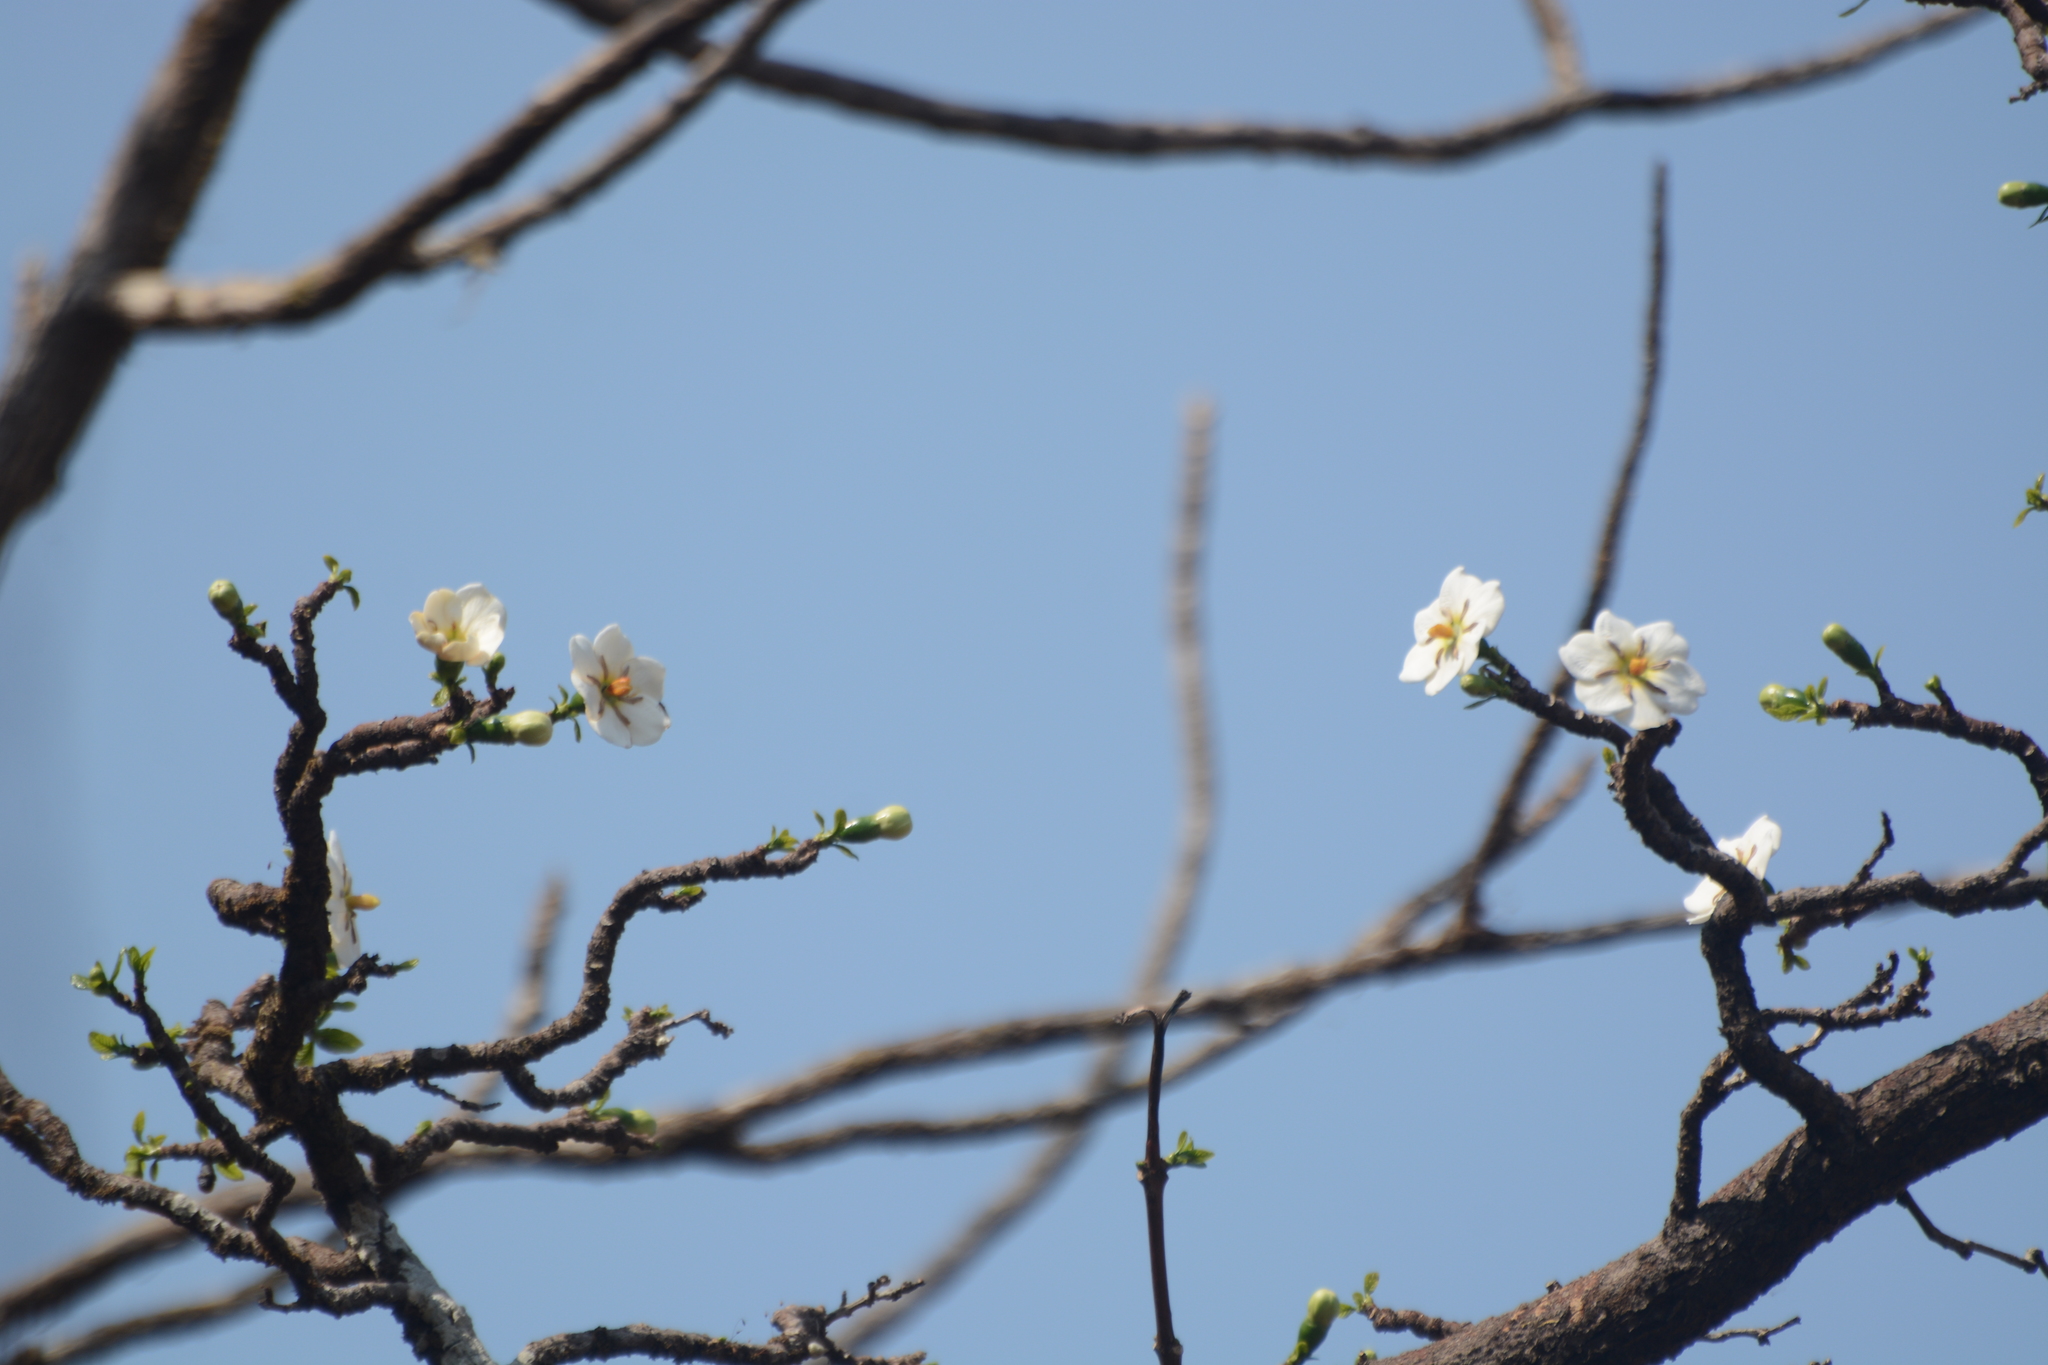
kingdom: Plantae
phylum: Tracheophyta
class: Magnoliopsida
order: Gentianales
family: Rubiaceae
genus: Tamilnadia
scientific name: Tamilnadia uliginosa
